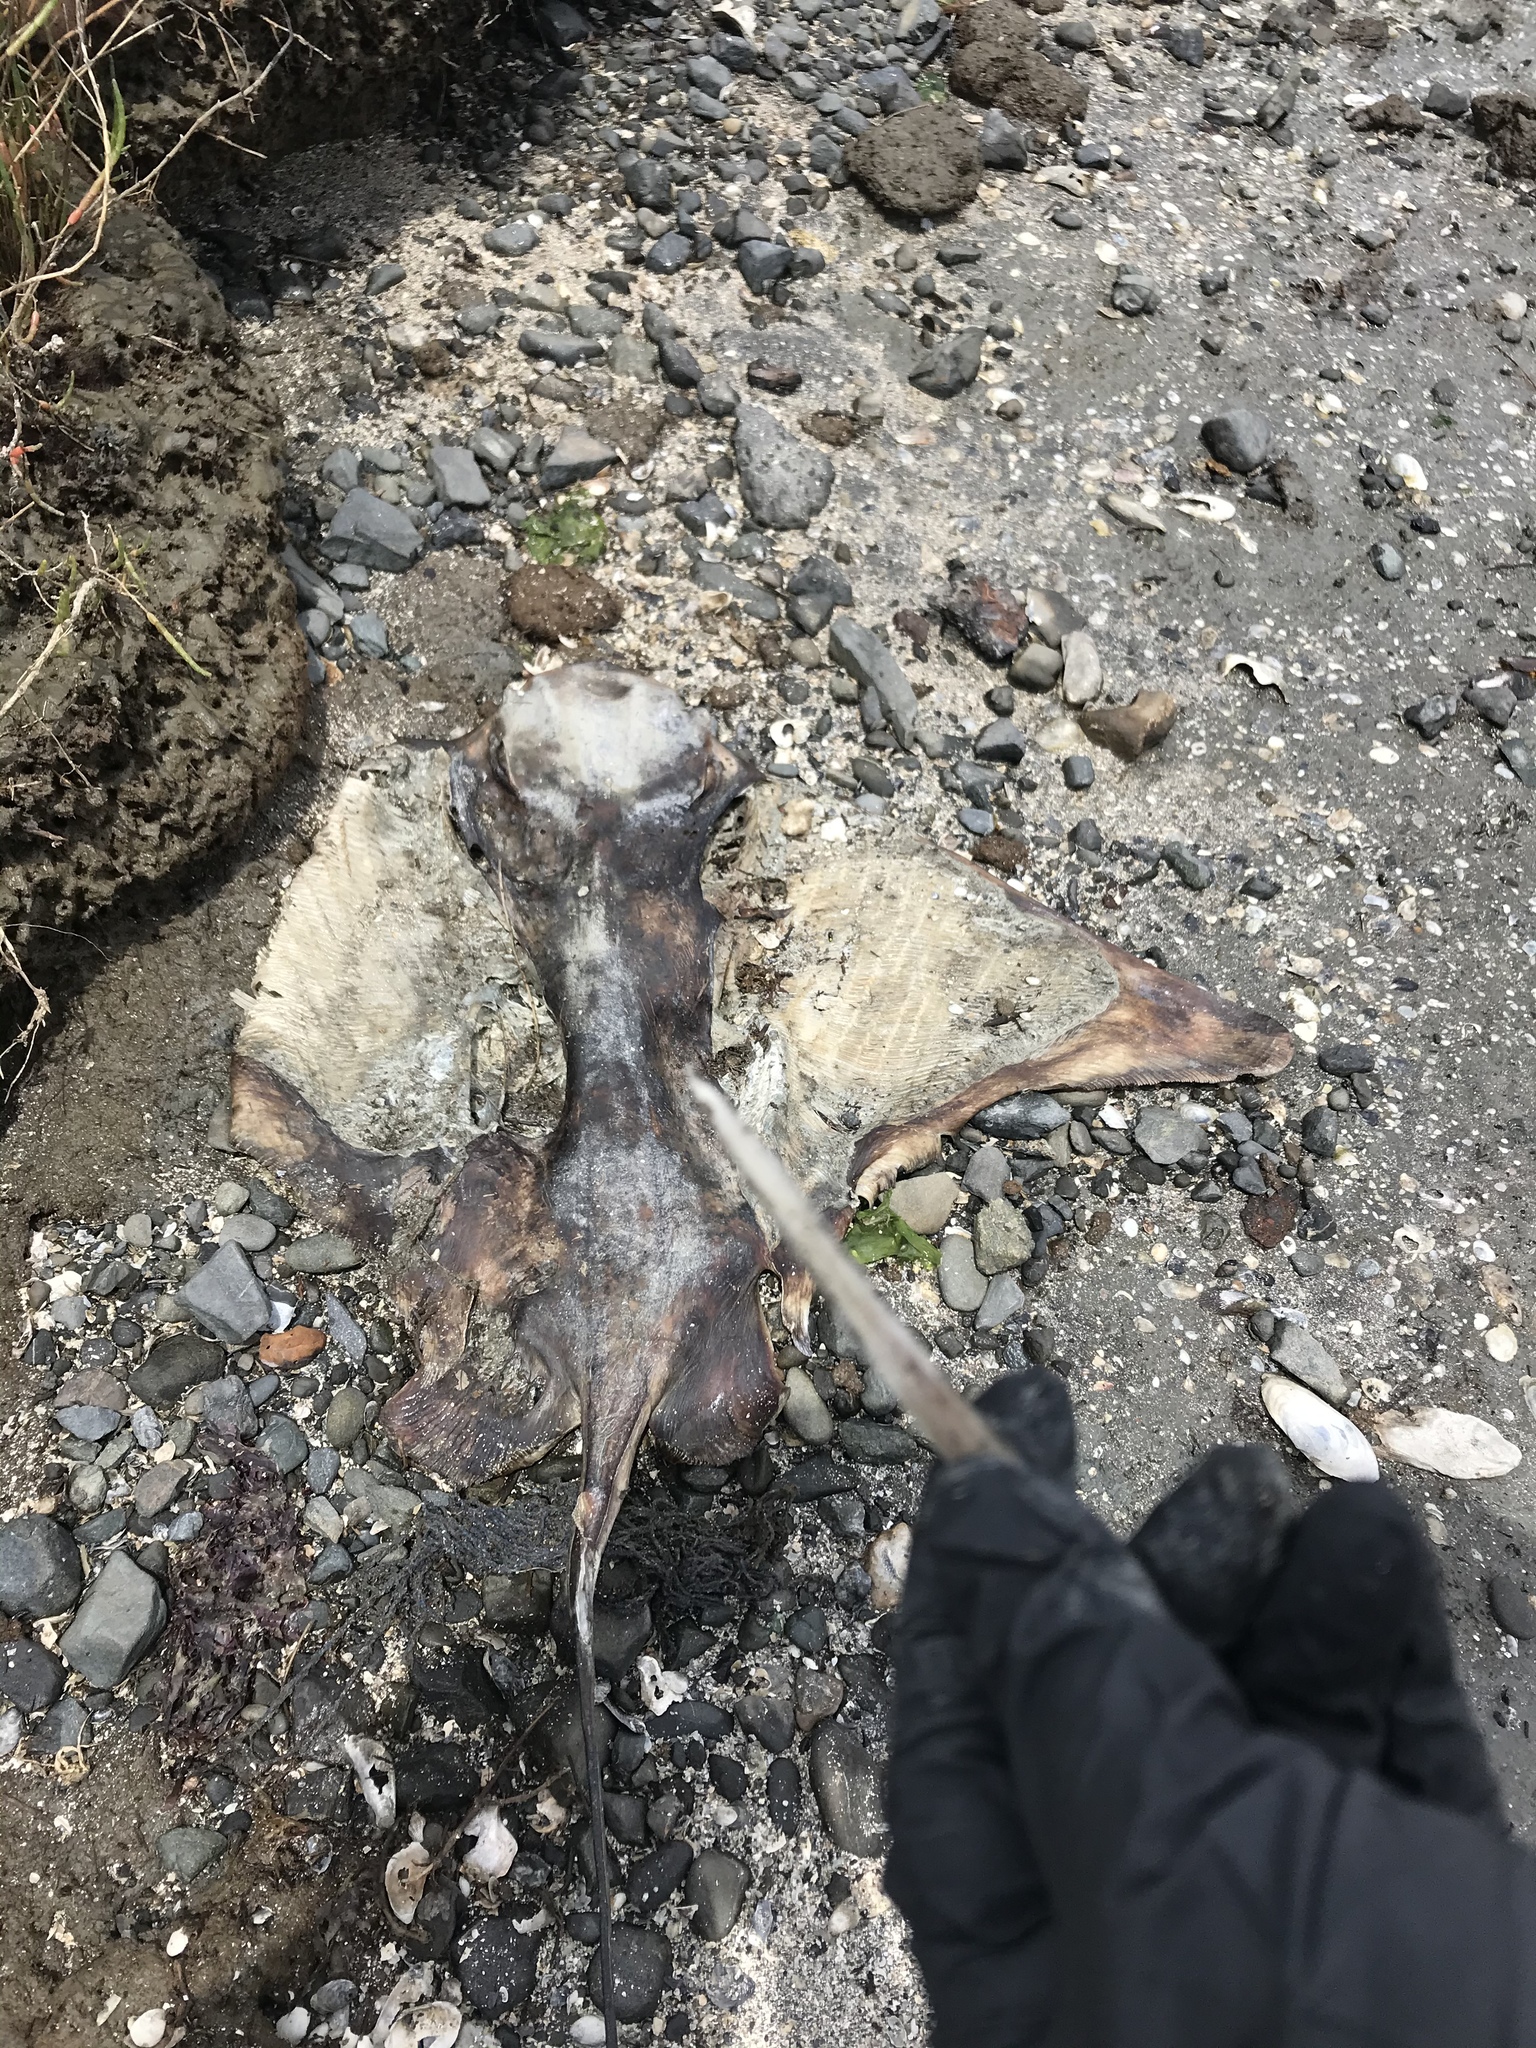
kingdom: Animalia
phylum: Chordata
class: Elasmobranchii
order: Myliobatiformes
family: Myliobatidae
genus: Myliobatis
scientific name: Myliobatis californica
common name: Bat ray
